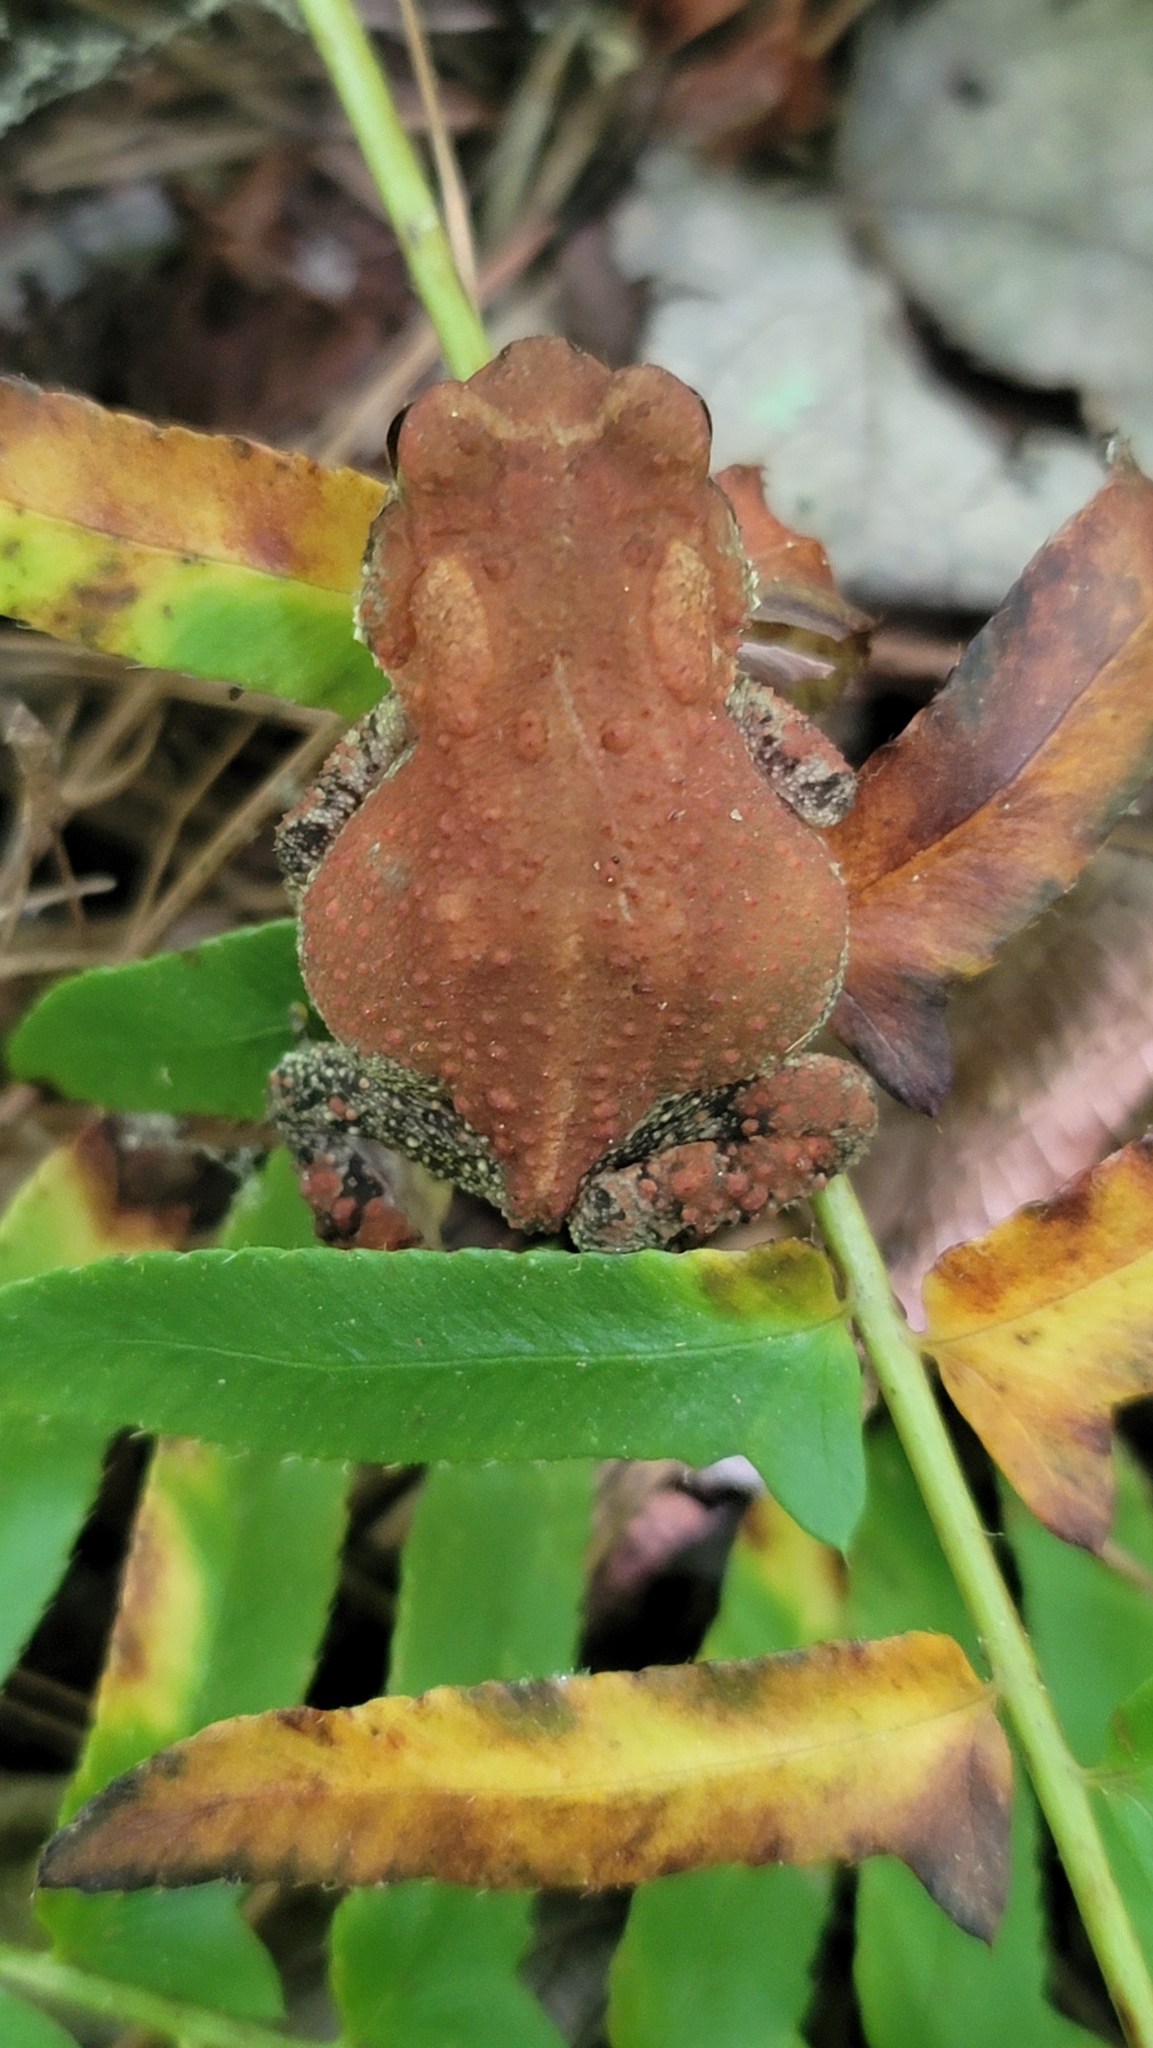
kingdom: Animalia
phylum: Chordata
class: Amphibia
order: Anura
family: Bufonidae
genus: Anaxyrus
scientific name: Anaxyrus americanus
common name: American toad
